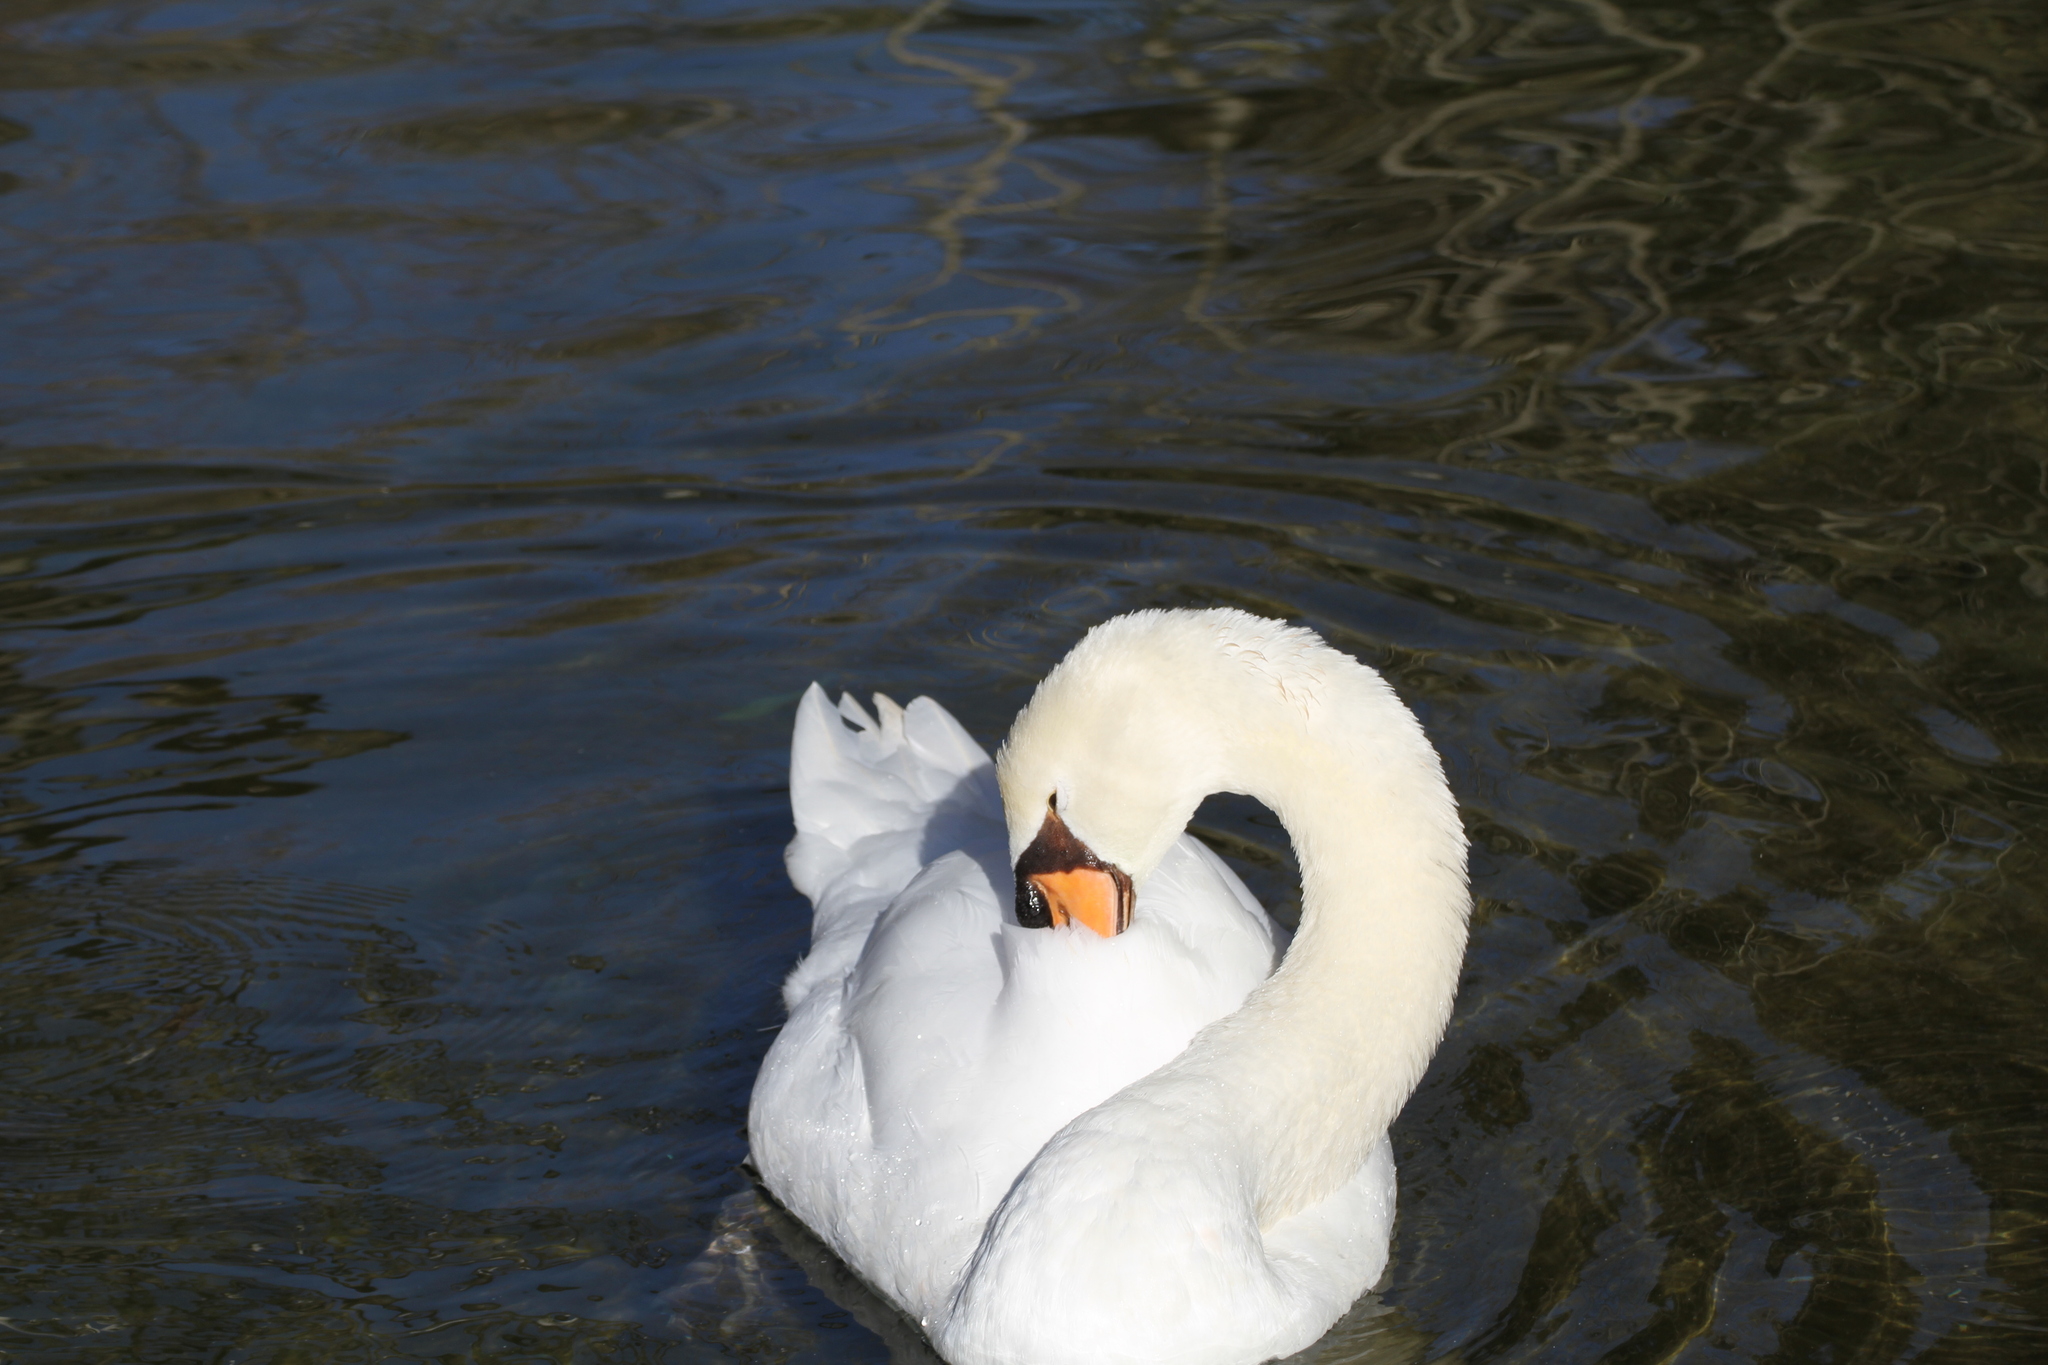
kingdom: Animalia
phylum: Chordata
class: Aves
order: Anseriformes
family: Anatidae
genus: Cygnus
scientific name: Cygnus olor
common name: Mute swan
